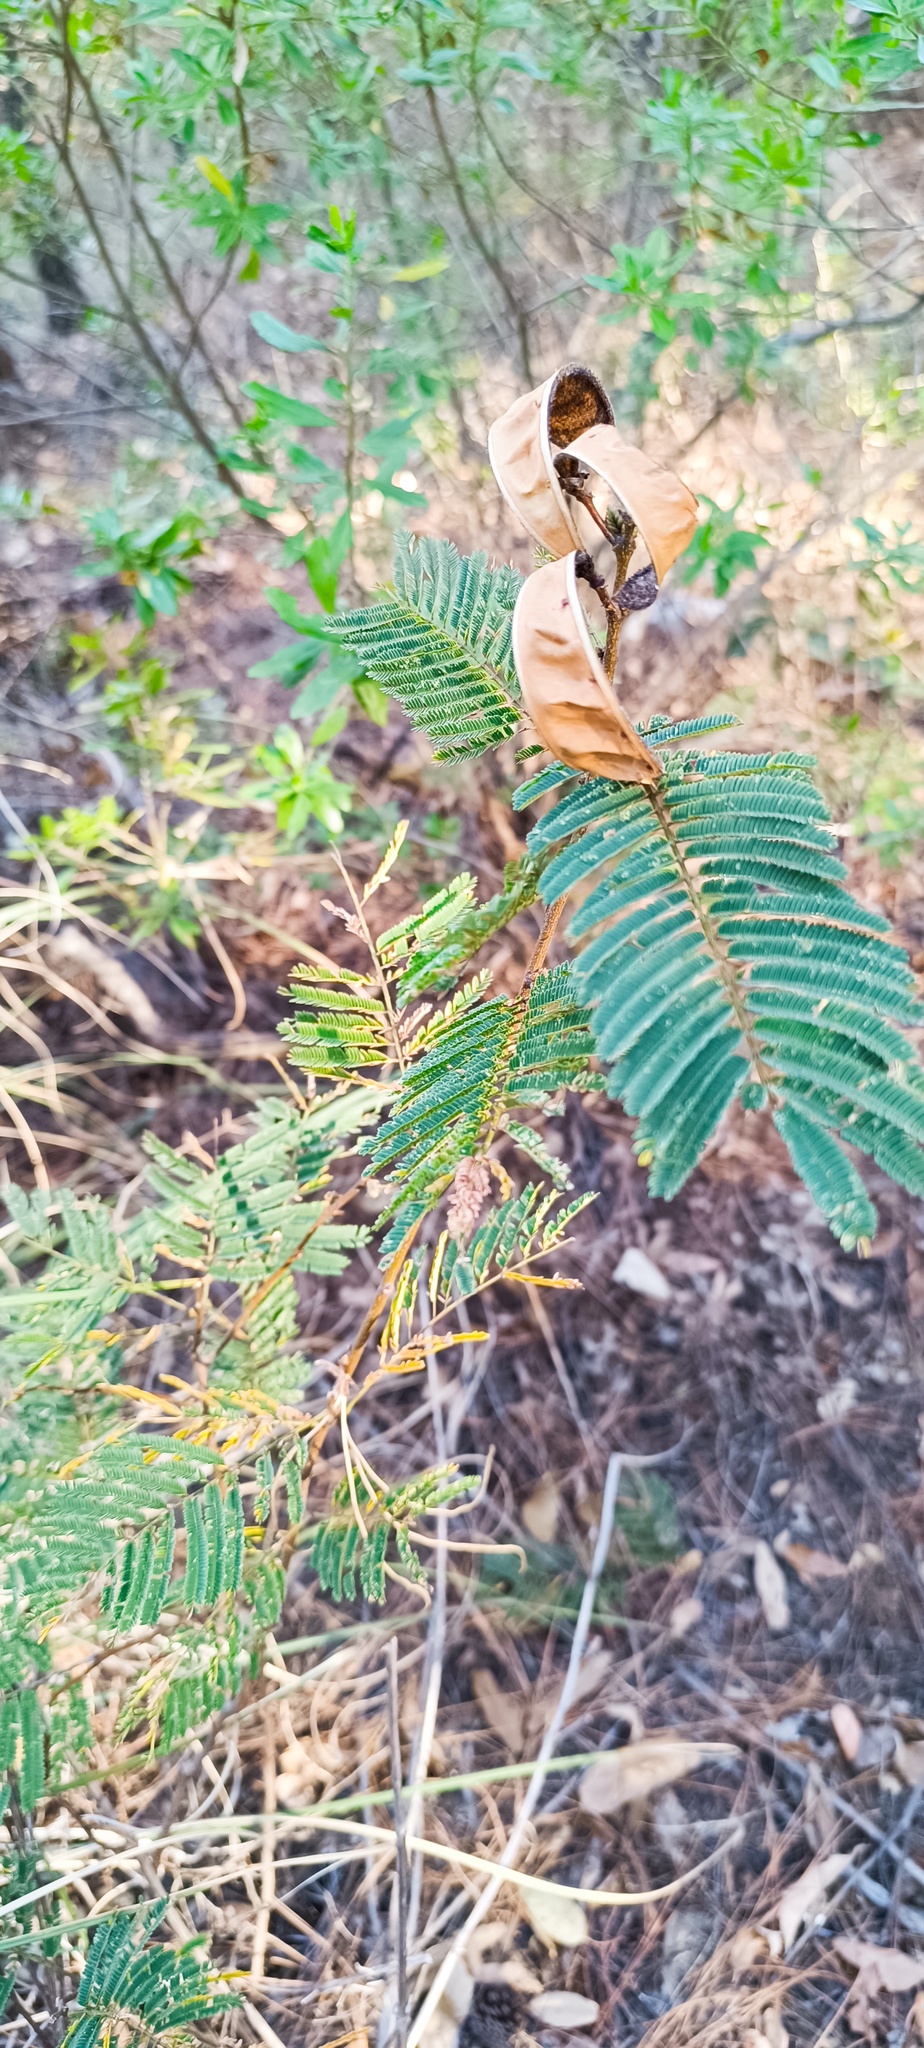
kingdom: Plantae
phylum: Tracheophyta
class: Magnoliopsida
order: Fabales
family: Fabaceae
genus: Calliandra
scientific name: Calliandra houstoniana
